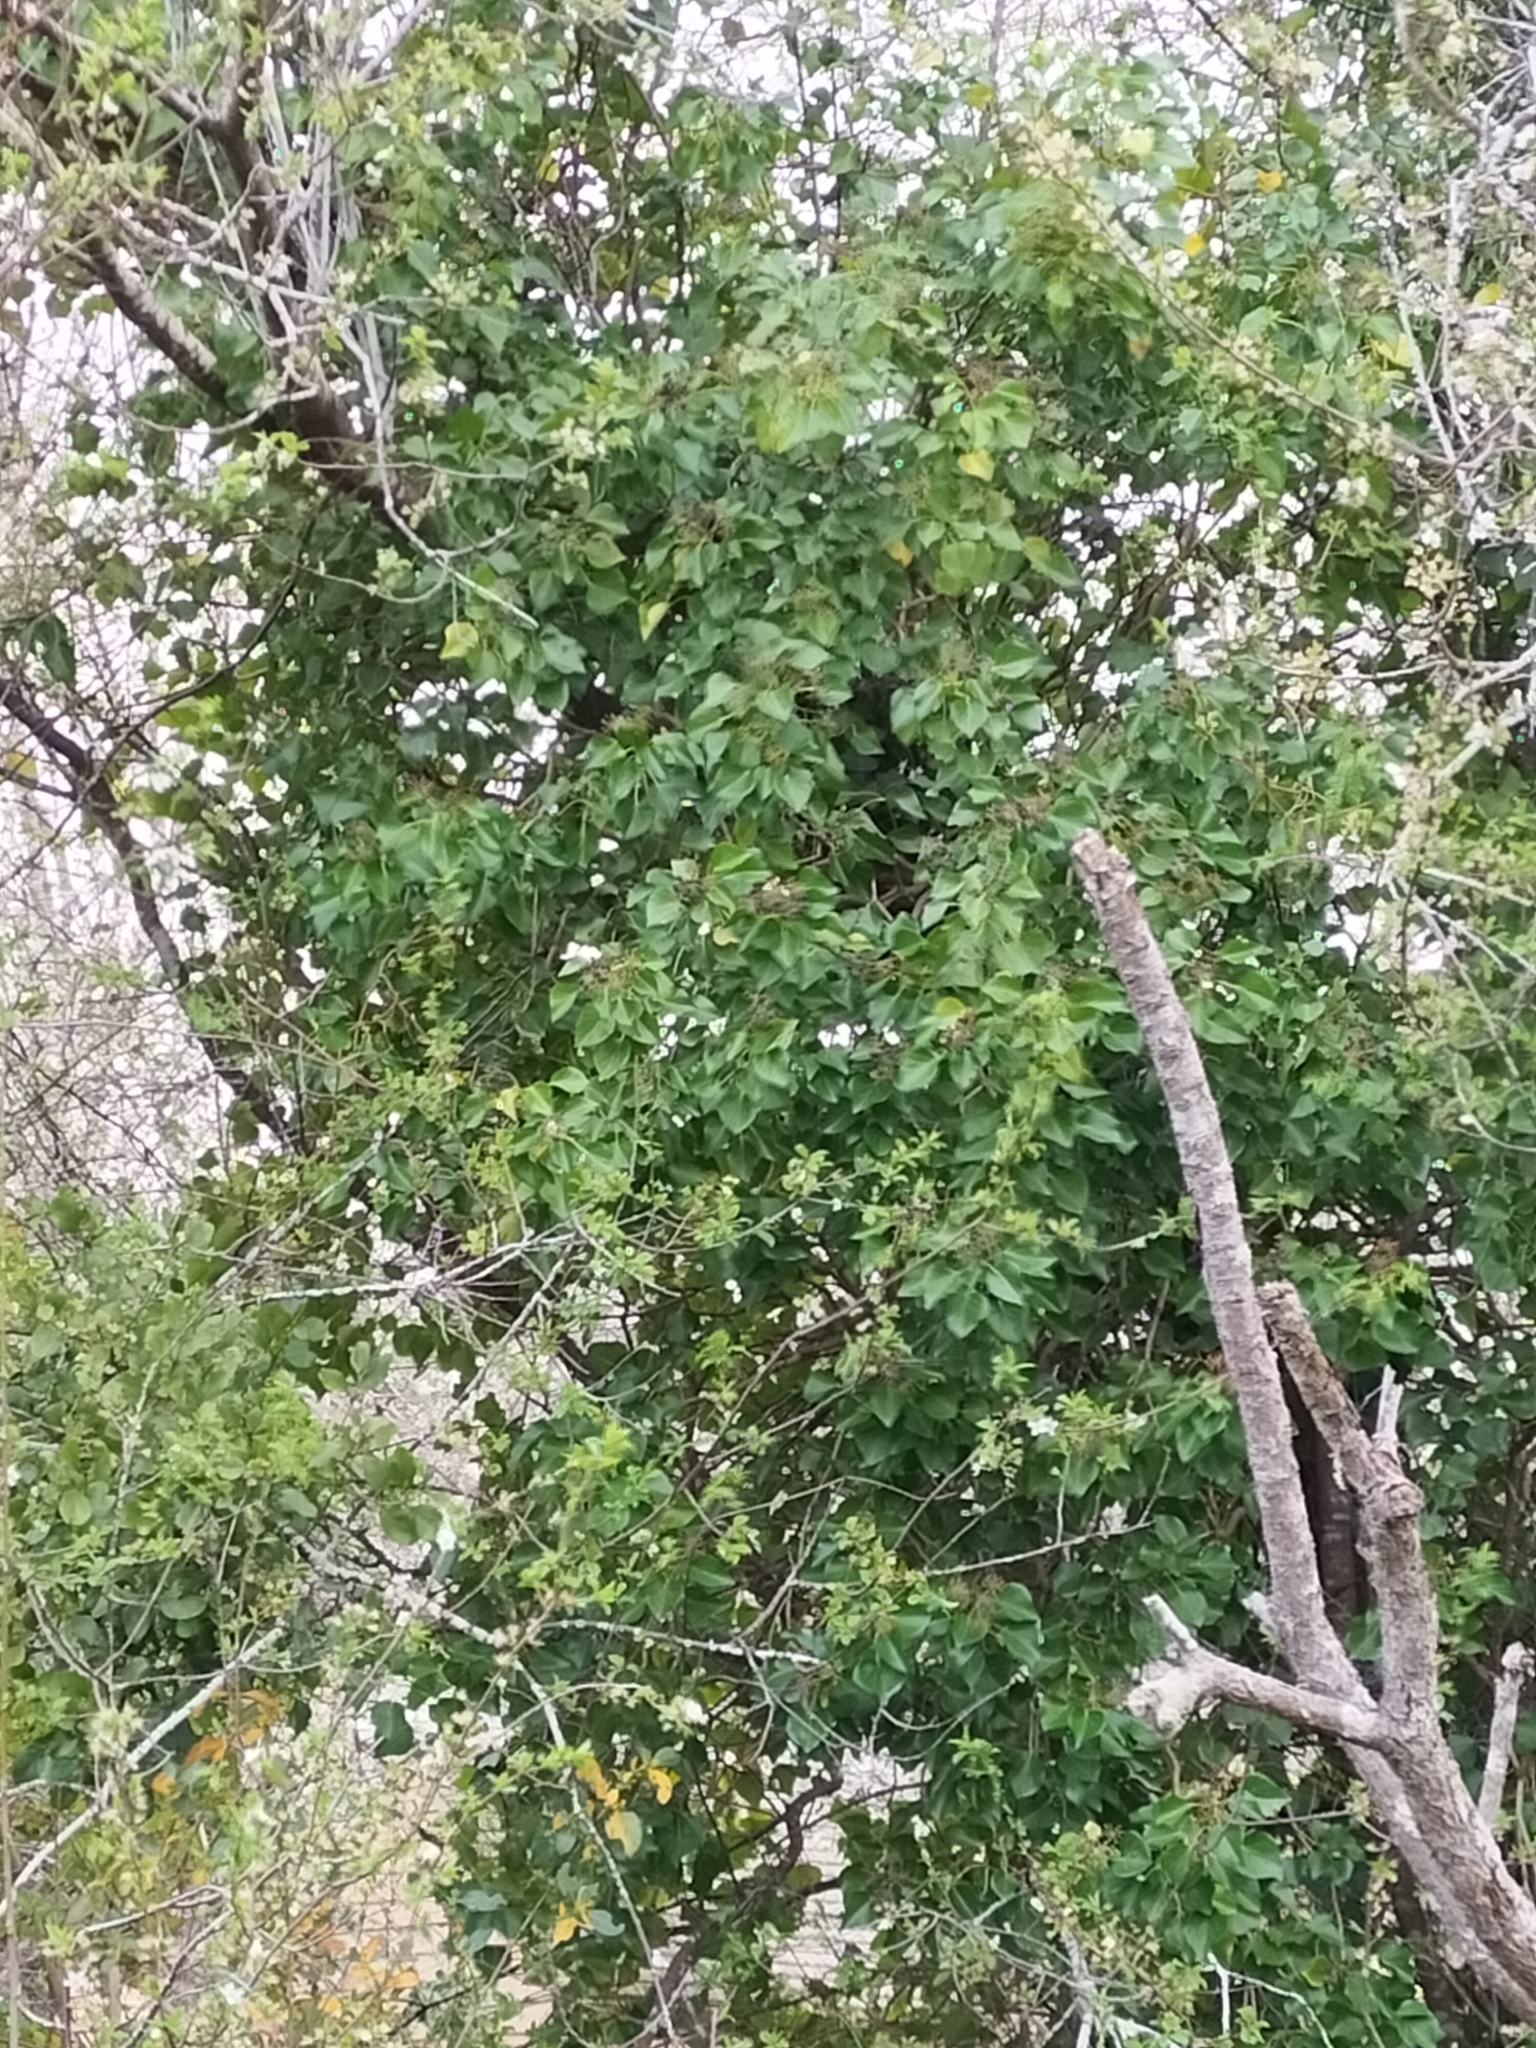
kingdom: Plantae
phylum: Tracheophyta
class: Magnoliopsida
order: Apiales
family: Araliaceae
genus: Hedera
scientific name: Hedera helix
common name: Ivy
